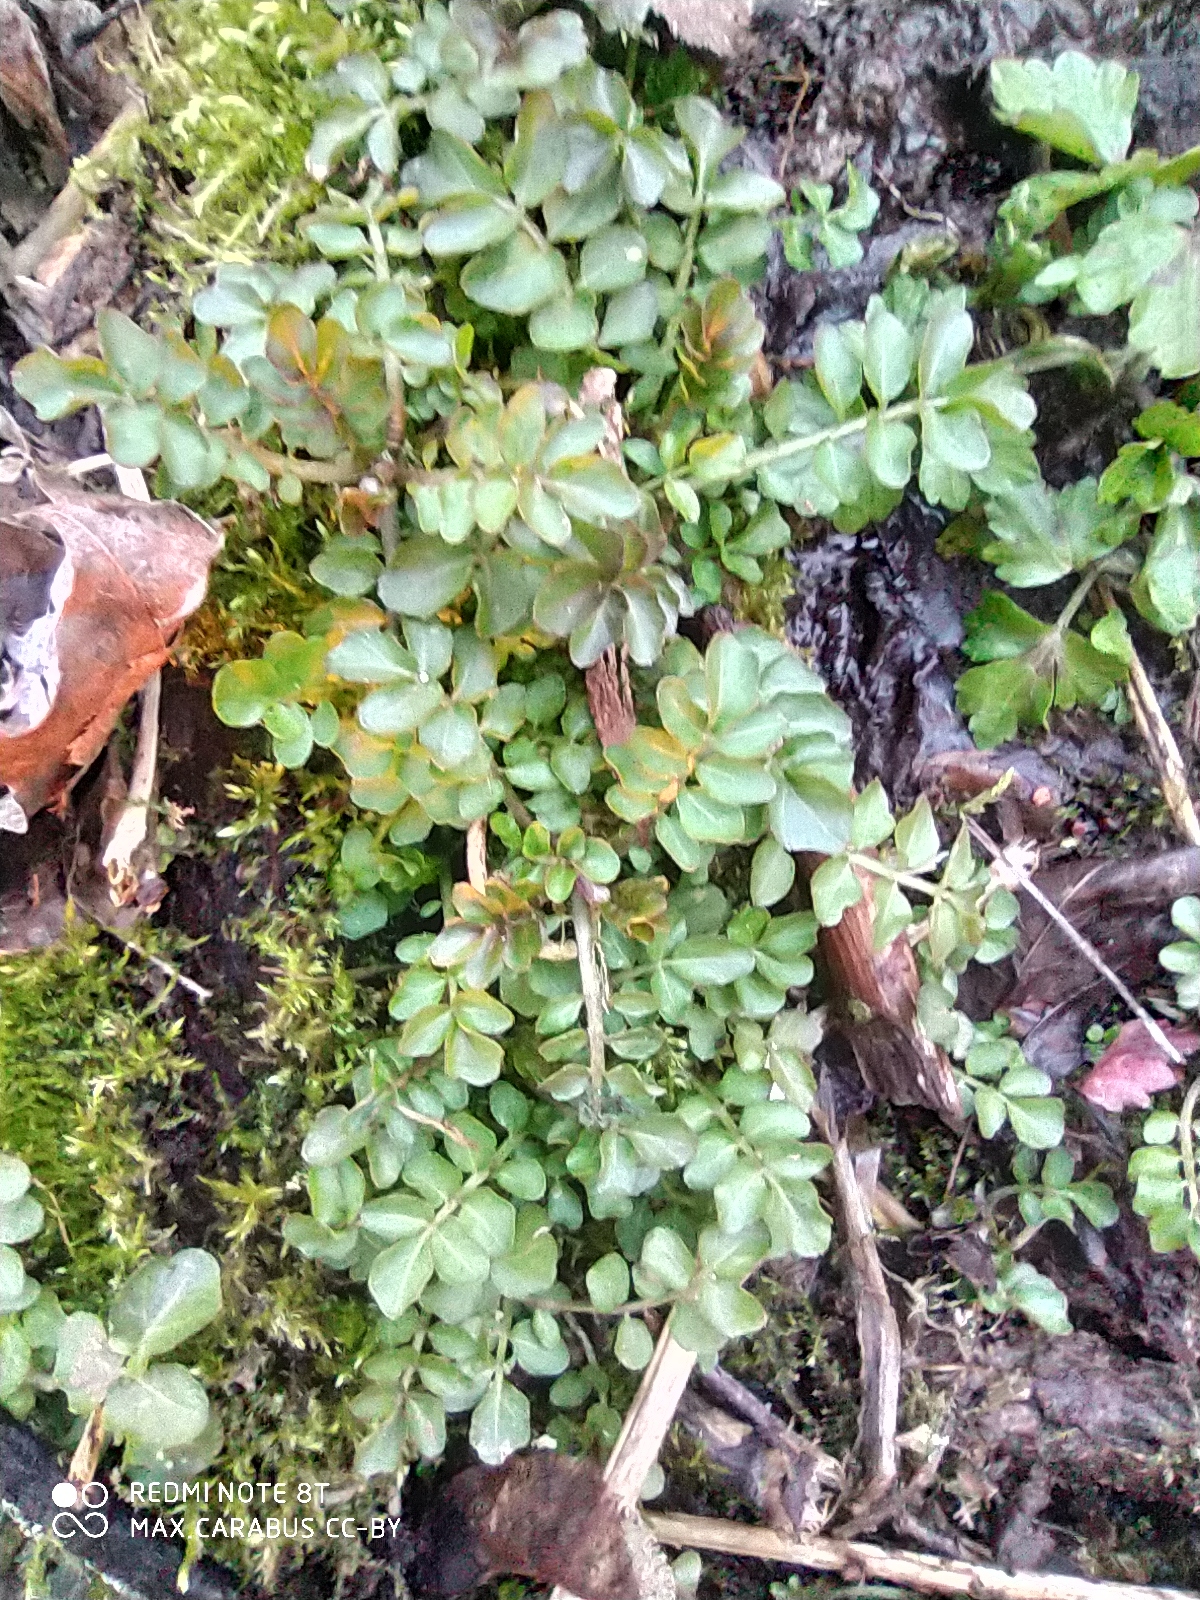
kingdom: Plantae
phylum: Tracheophyta
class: Magnoliopsida
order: Brassicales
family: Brassicaceae
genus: Cardamine
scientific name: Cardamine amara
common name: Large bitter-cress
